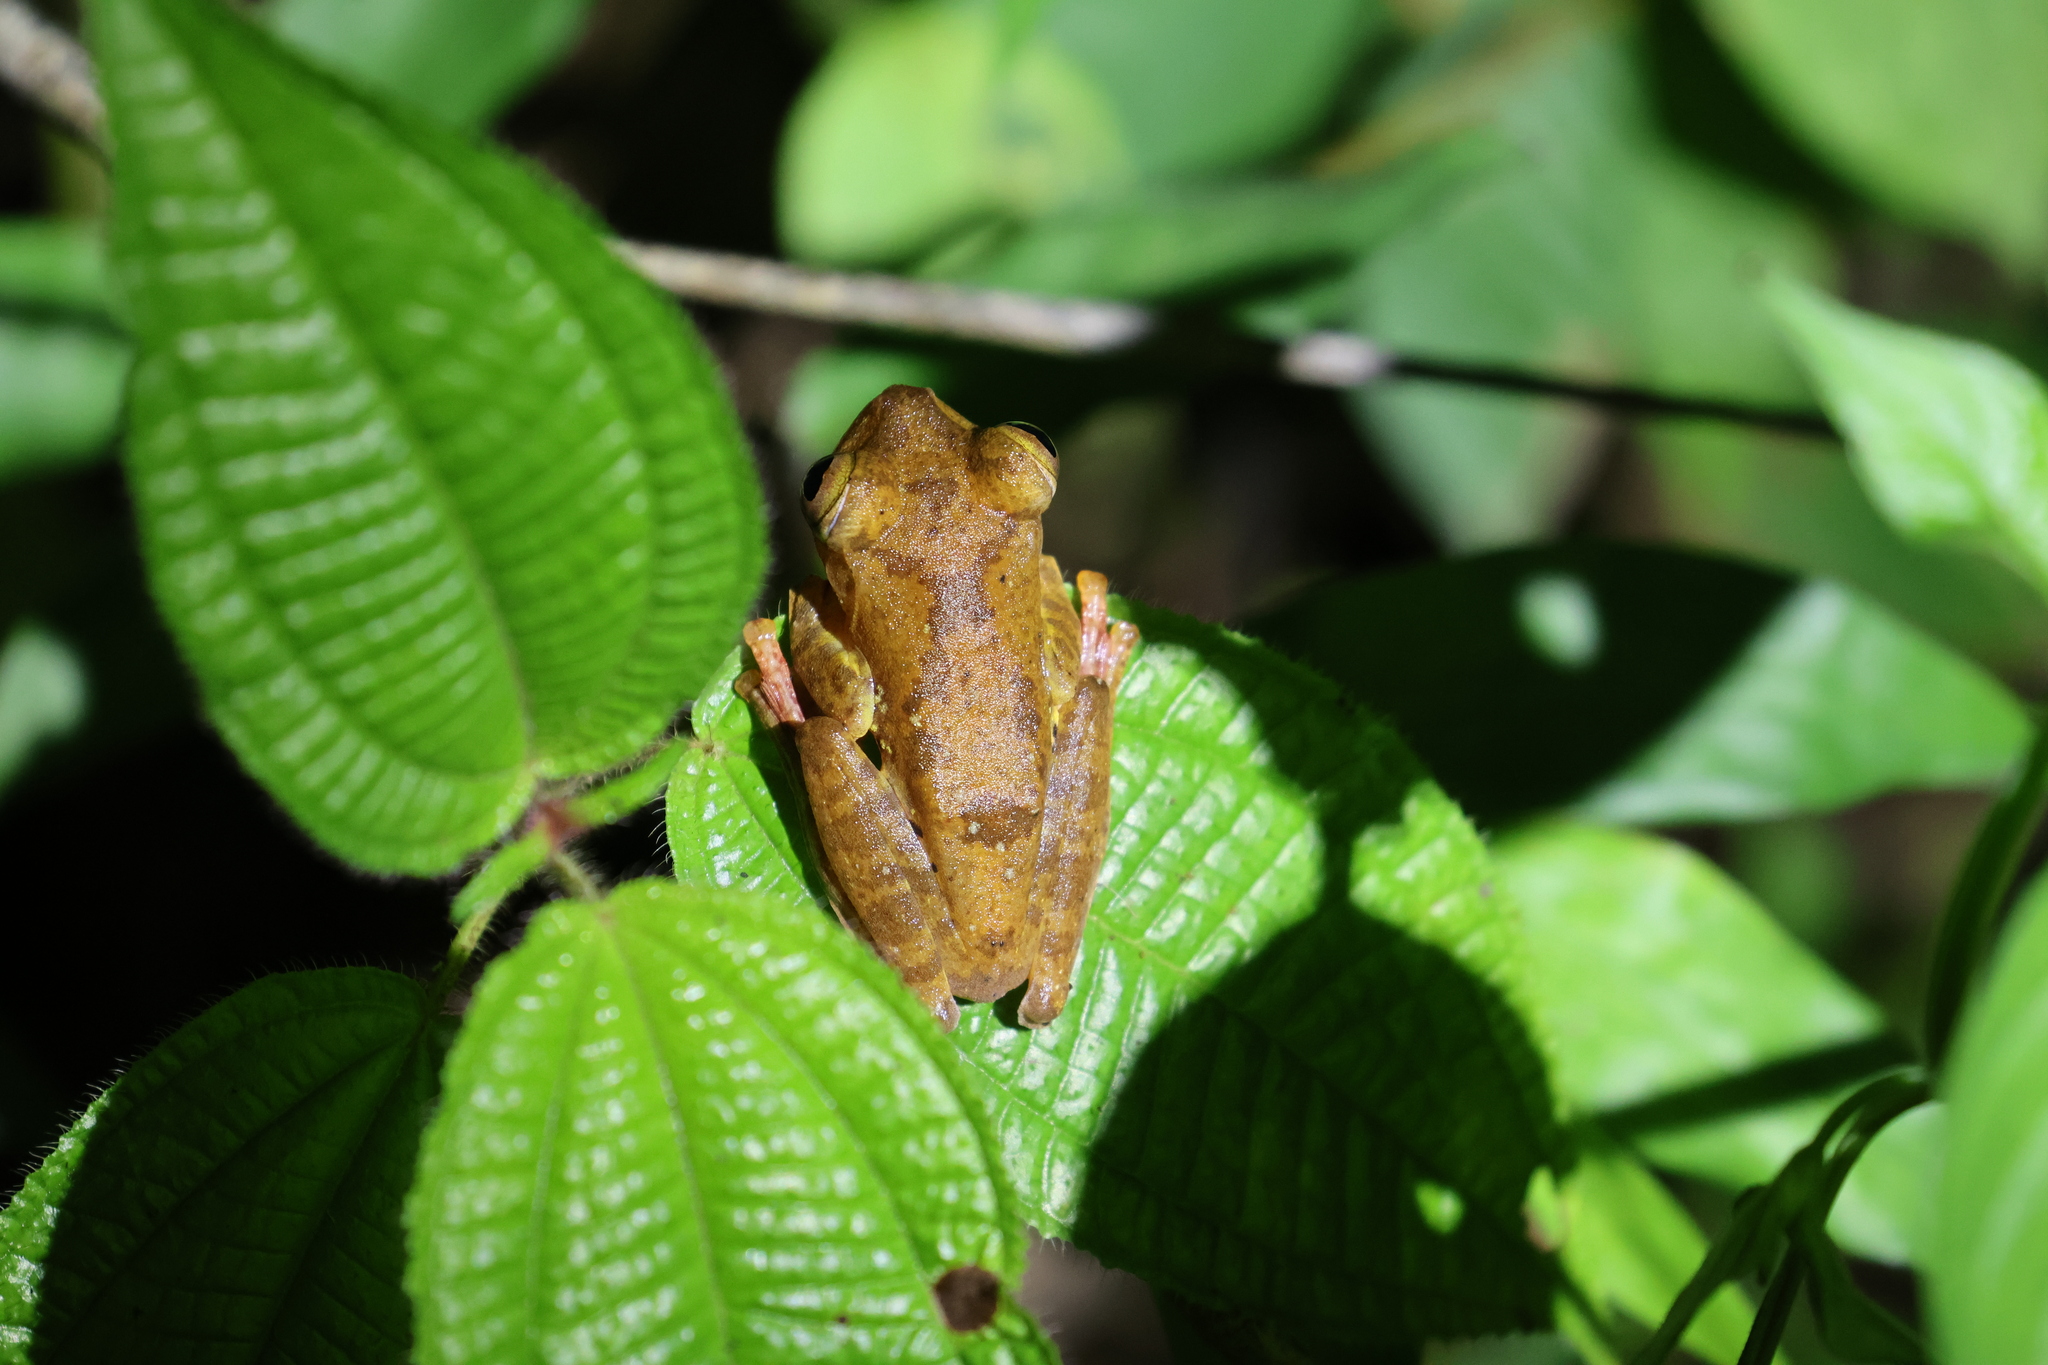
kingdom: Animalia
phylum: Chordata
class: Amphibia
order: Anura
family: Rhacophoridae
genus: Rhacophorus
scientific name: Rhacophorus pardalis
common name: Harlequin tree frog
